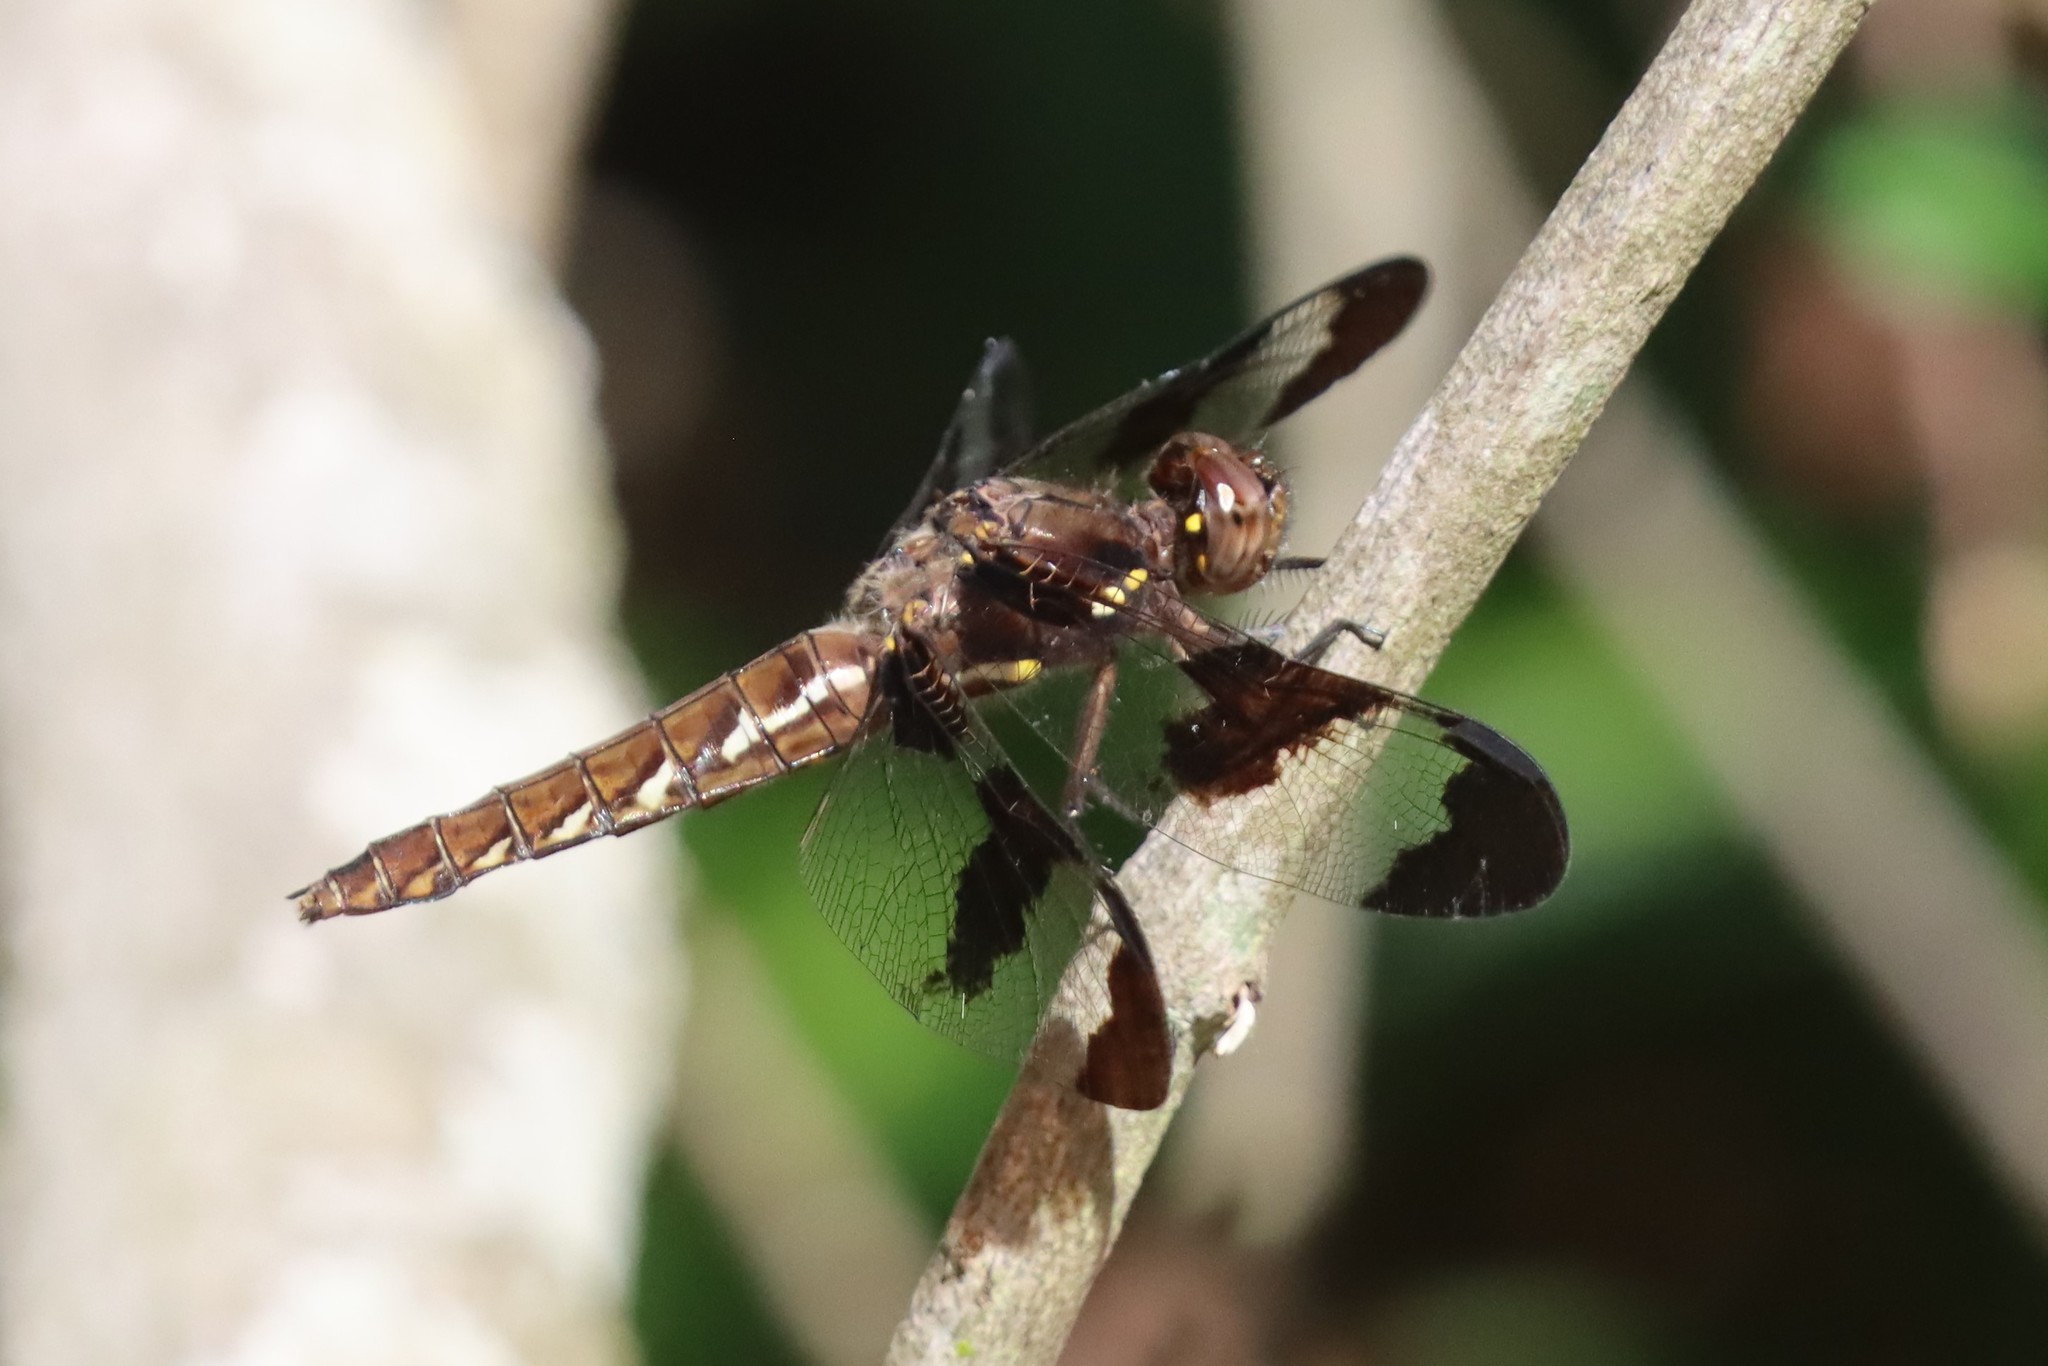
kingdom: Animalia
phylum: Arthropoda
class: Insecta
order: Odonata
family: Libellulidae
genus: Plathemis
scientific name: Plathemis lydia
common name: Common whitetail
